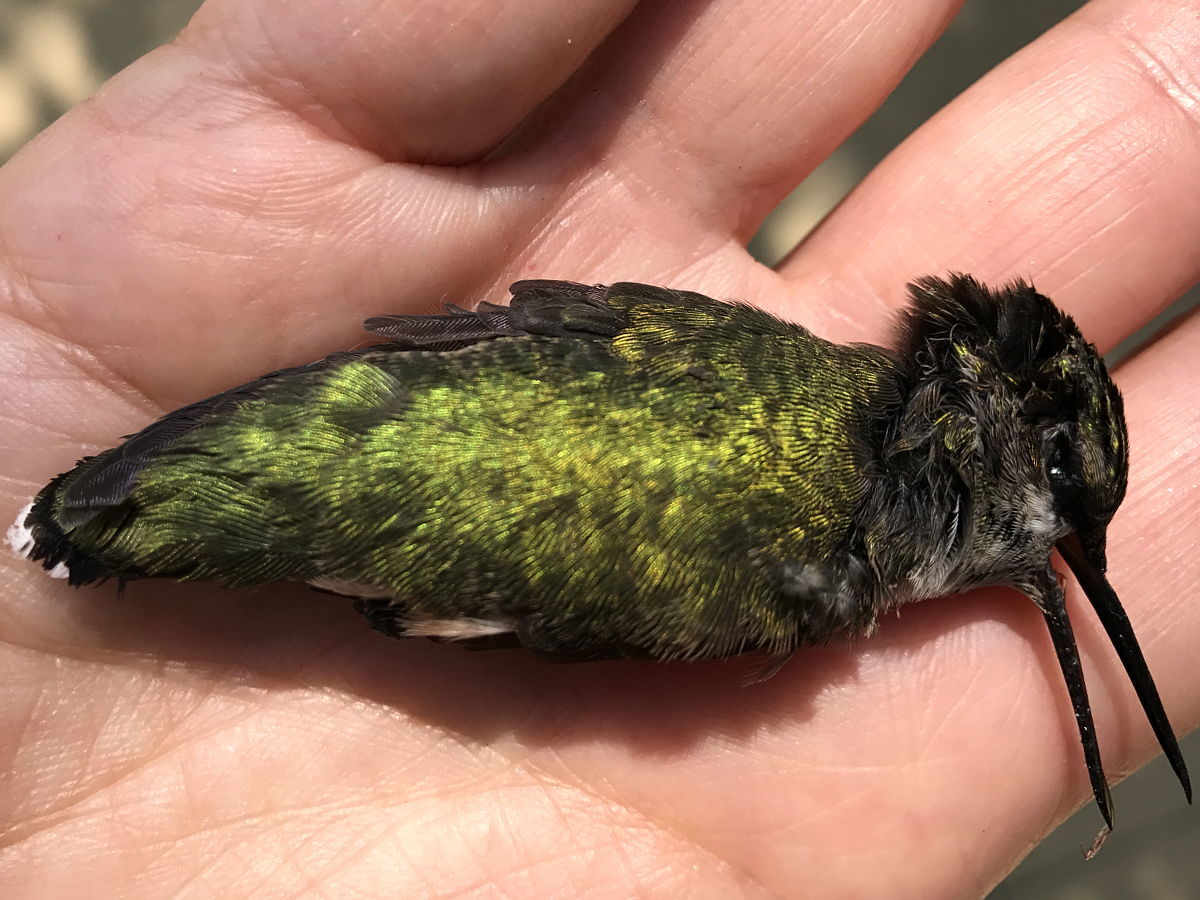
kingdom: Animalia
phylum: Chordata
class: Aves
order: Apodiformes
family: Trochilidae
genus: Archilochus
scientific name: Archilochus colubris
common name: Ruby-throated hummingbird
